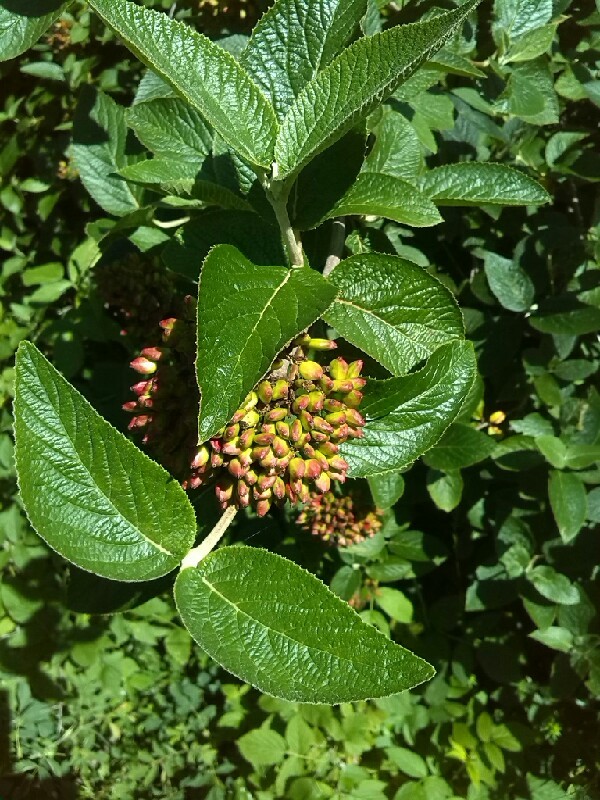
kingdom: Plantae
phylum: Tracheophyta
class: Magnoliopsida
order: Dipsacales
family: Viburnaceae
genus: Viburnum
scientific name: Viburnum lantana
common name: Wayfaring tree
